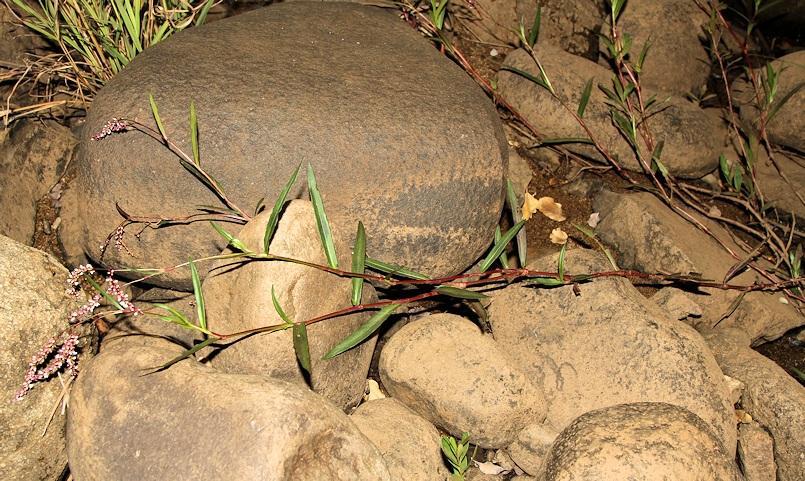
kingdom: Plantae
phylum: Tracheophyta
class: Magnoliopsida
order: Caryophyllales
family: Polygonaceae
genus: Persicaria
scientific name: Persicaria decipiens
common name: Willow-weed
